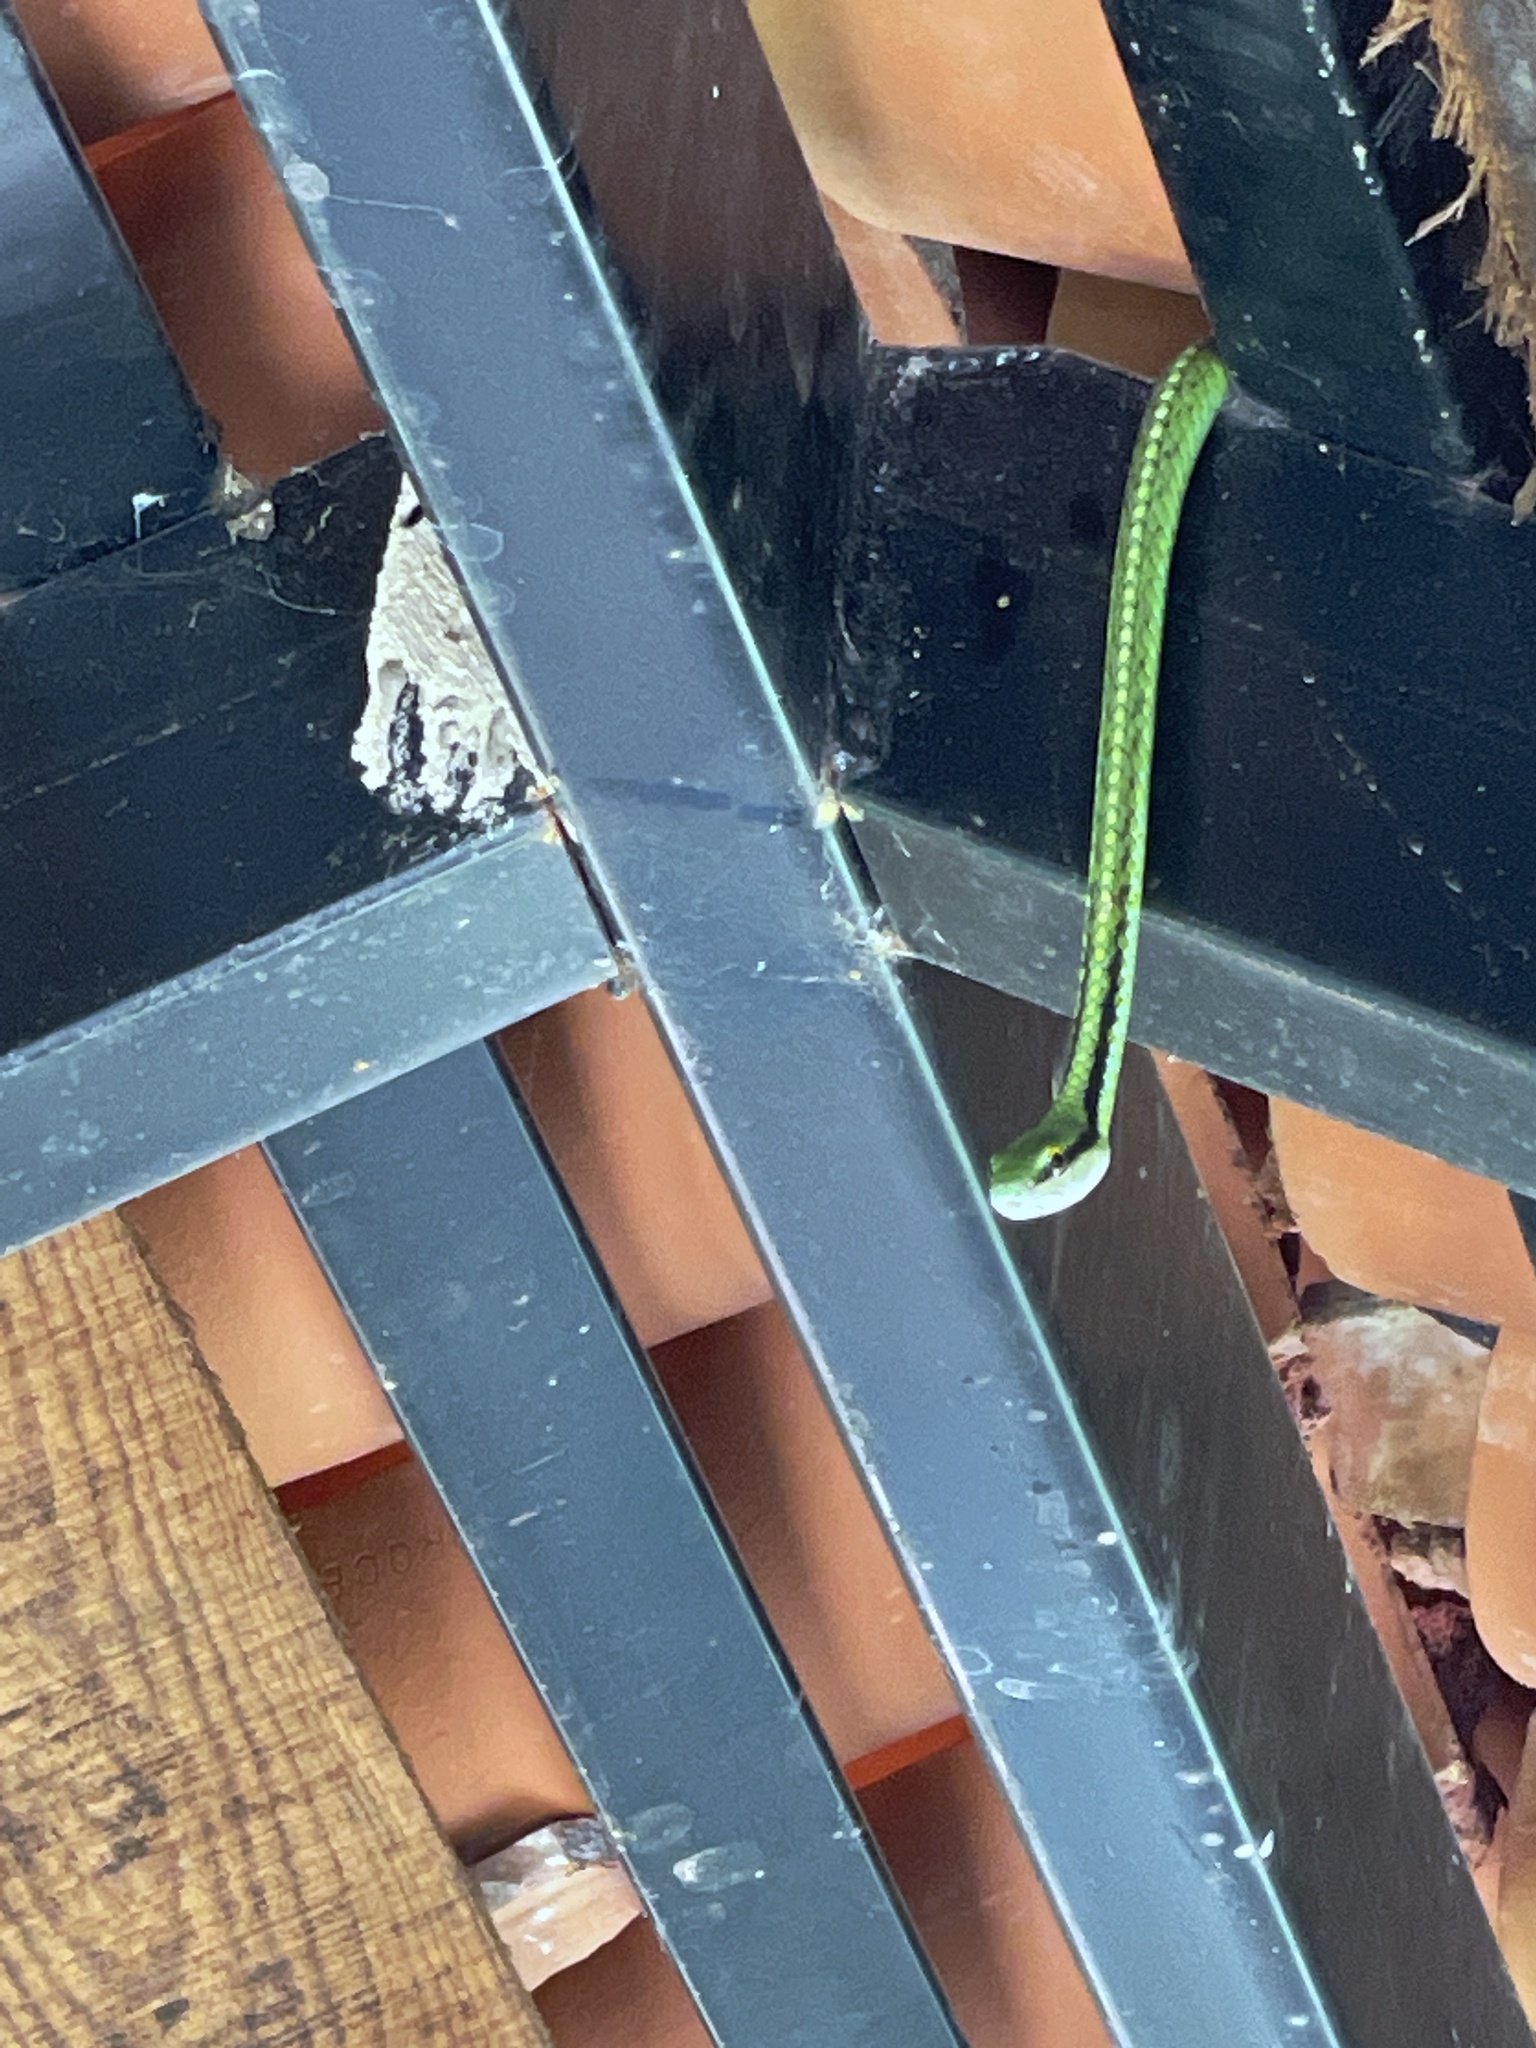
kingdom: Animalia
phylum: Chordata
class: Squamata
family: Colubridae
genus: Leptophis
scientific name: Leptophis diplotropis
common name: Pacific coast parrot snake
